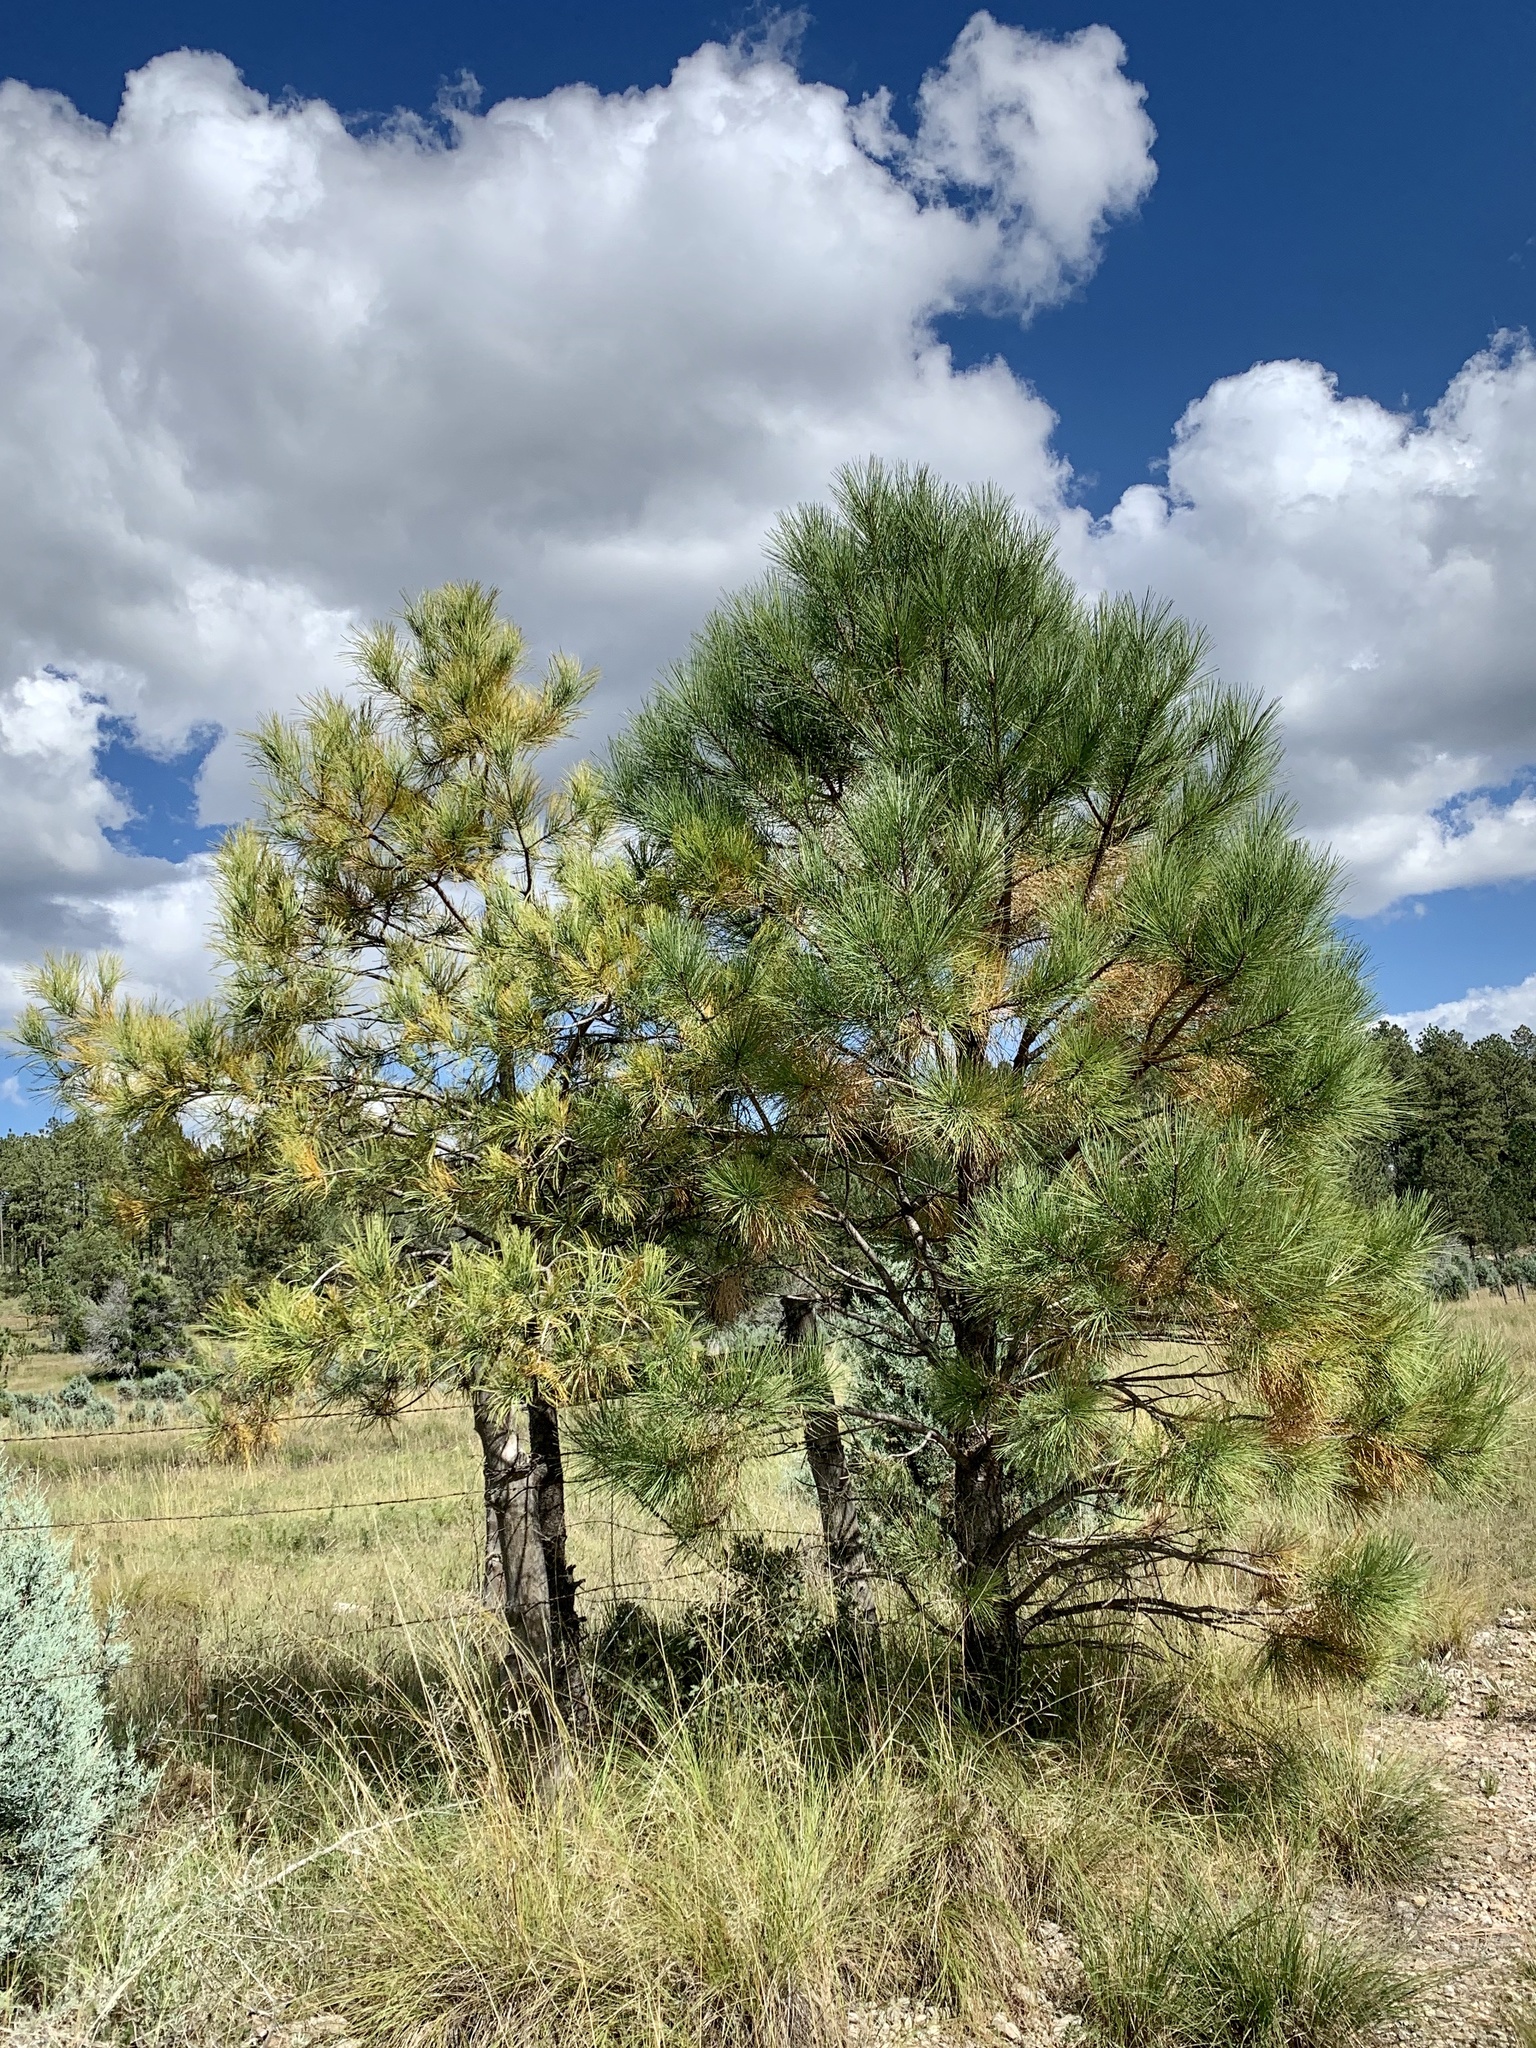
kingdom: Plantae
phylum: Tracheophyta
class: Pinopsida
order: Pinales
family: Pinaceae
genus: Pinus
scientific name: Pinus ponderosa
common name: Western yellow-pine
